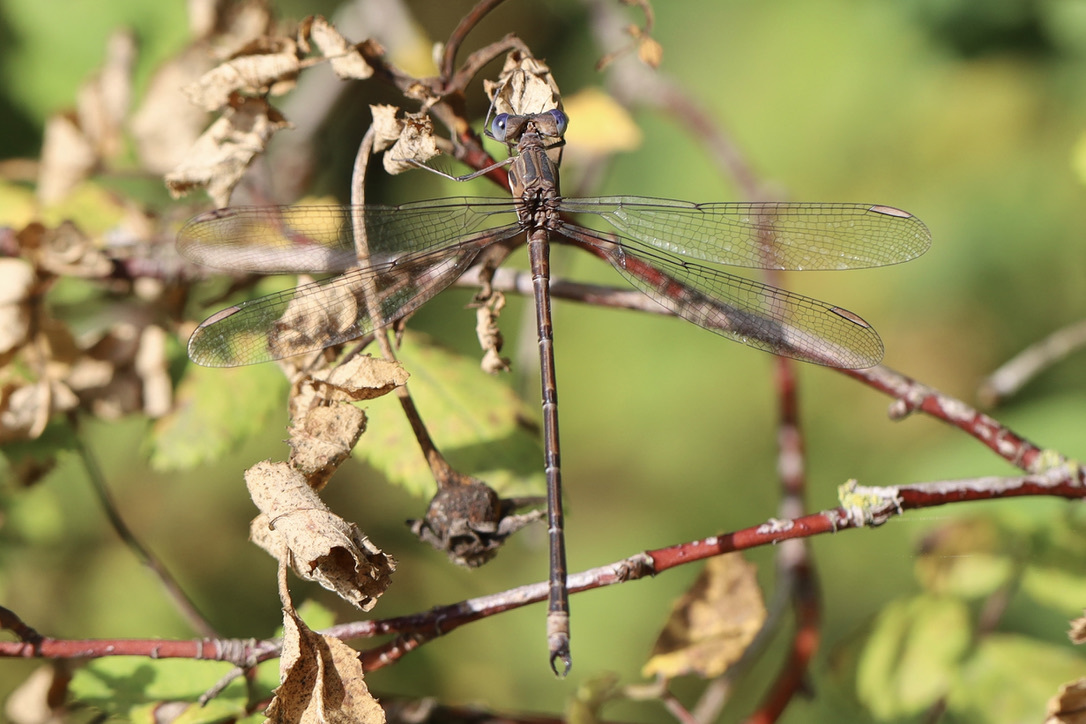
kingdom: Animalia
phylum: Arthropoda
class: Insecta
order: Odonata
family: Lestidae
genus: Archilestes
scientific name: Archilestes californicus
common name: California spreadwing
